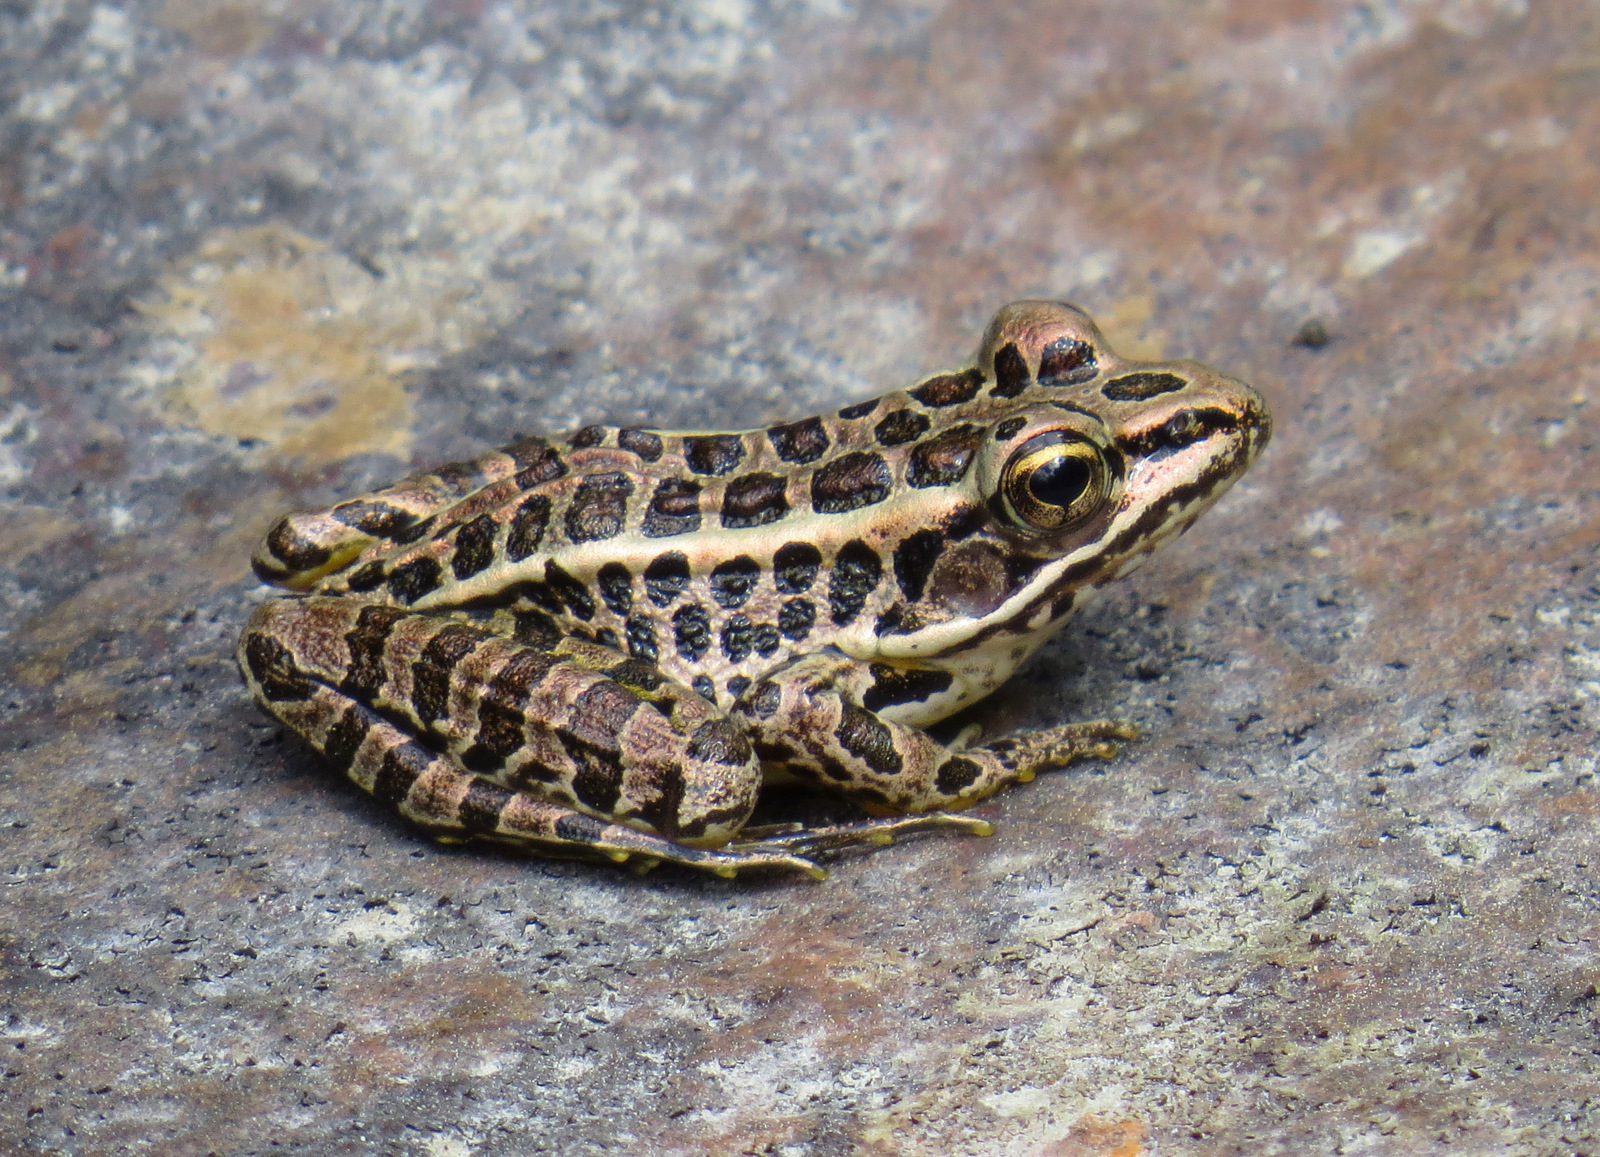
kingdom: Animalia
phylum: Chordata
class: Amphibia
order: Anura
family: Ranidae
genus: Lithobates
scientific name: Lithobates palustris
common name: Pickerel frog
